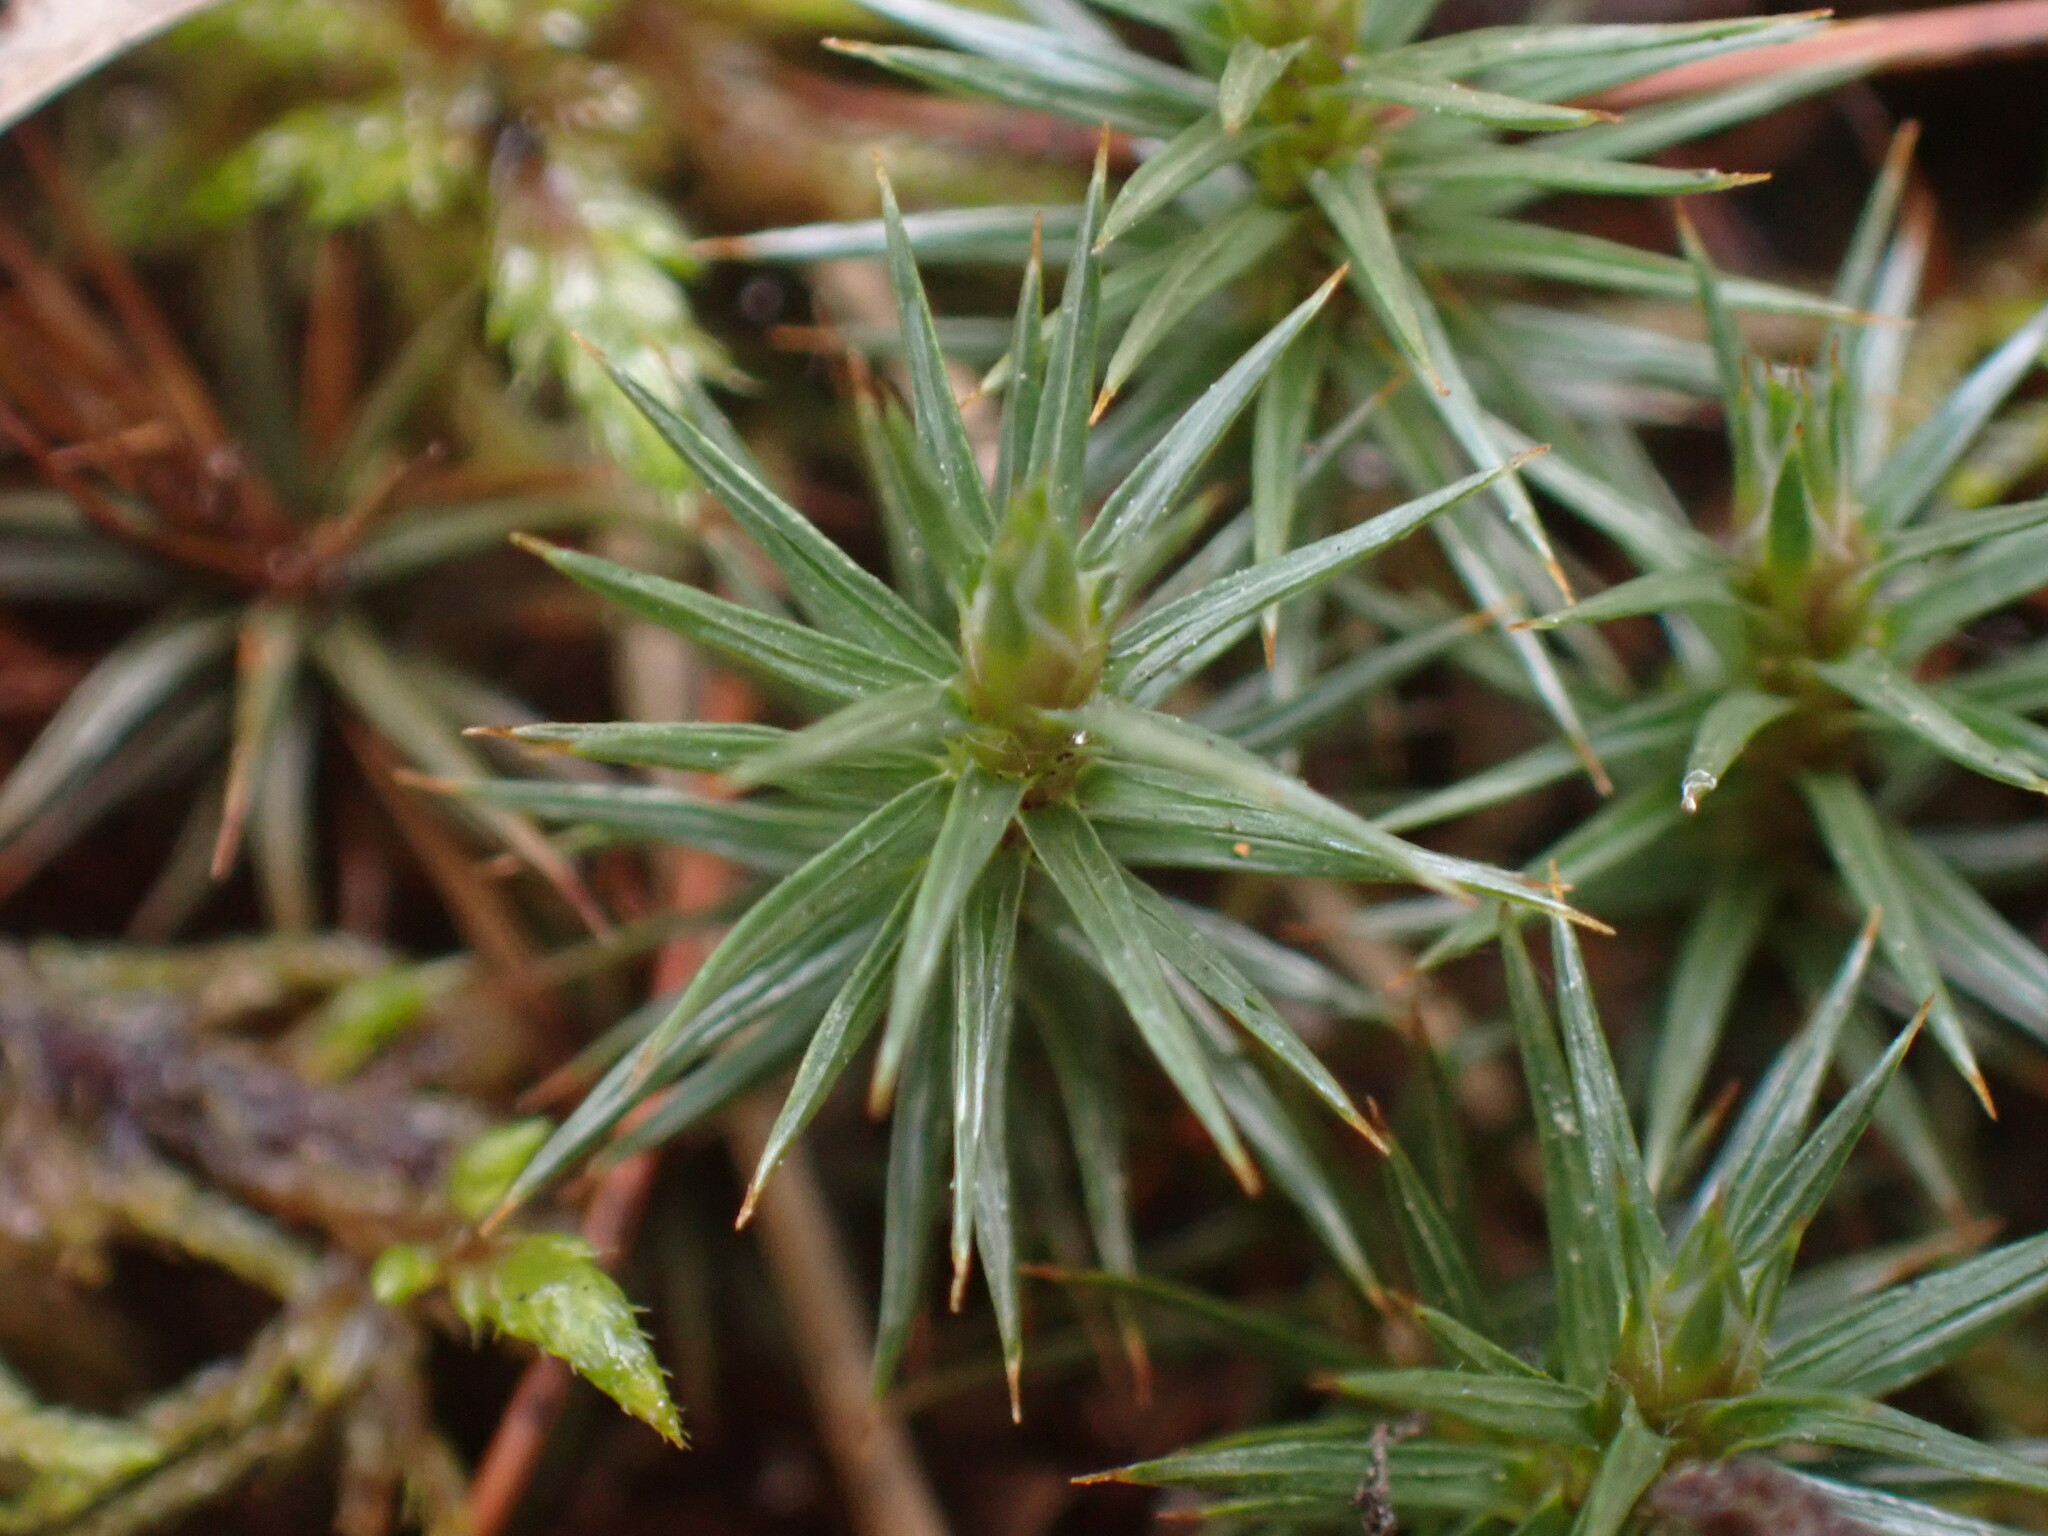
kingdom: Plantae
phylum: Bryophyta
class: Polytrichopsida
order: Polytrichales
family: Polytrichaceae
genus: Polytrichum
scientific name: Polytrichum juniperinum
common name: Juniper haircap moss
